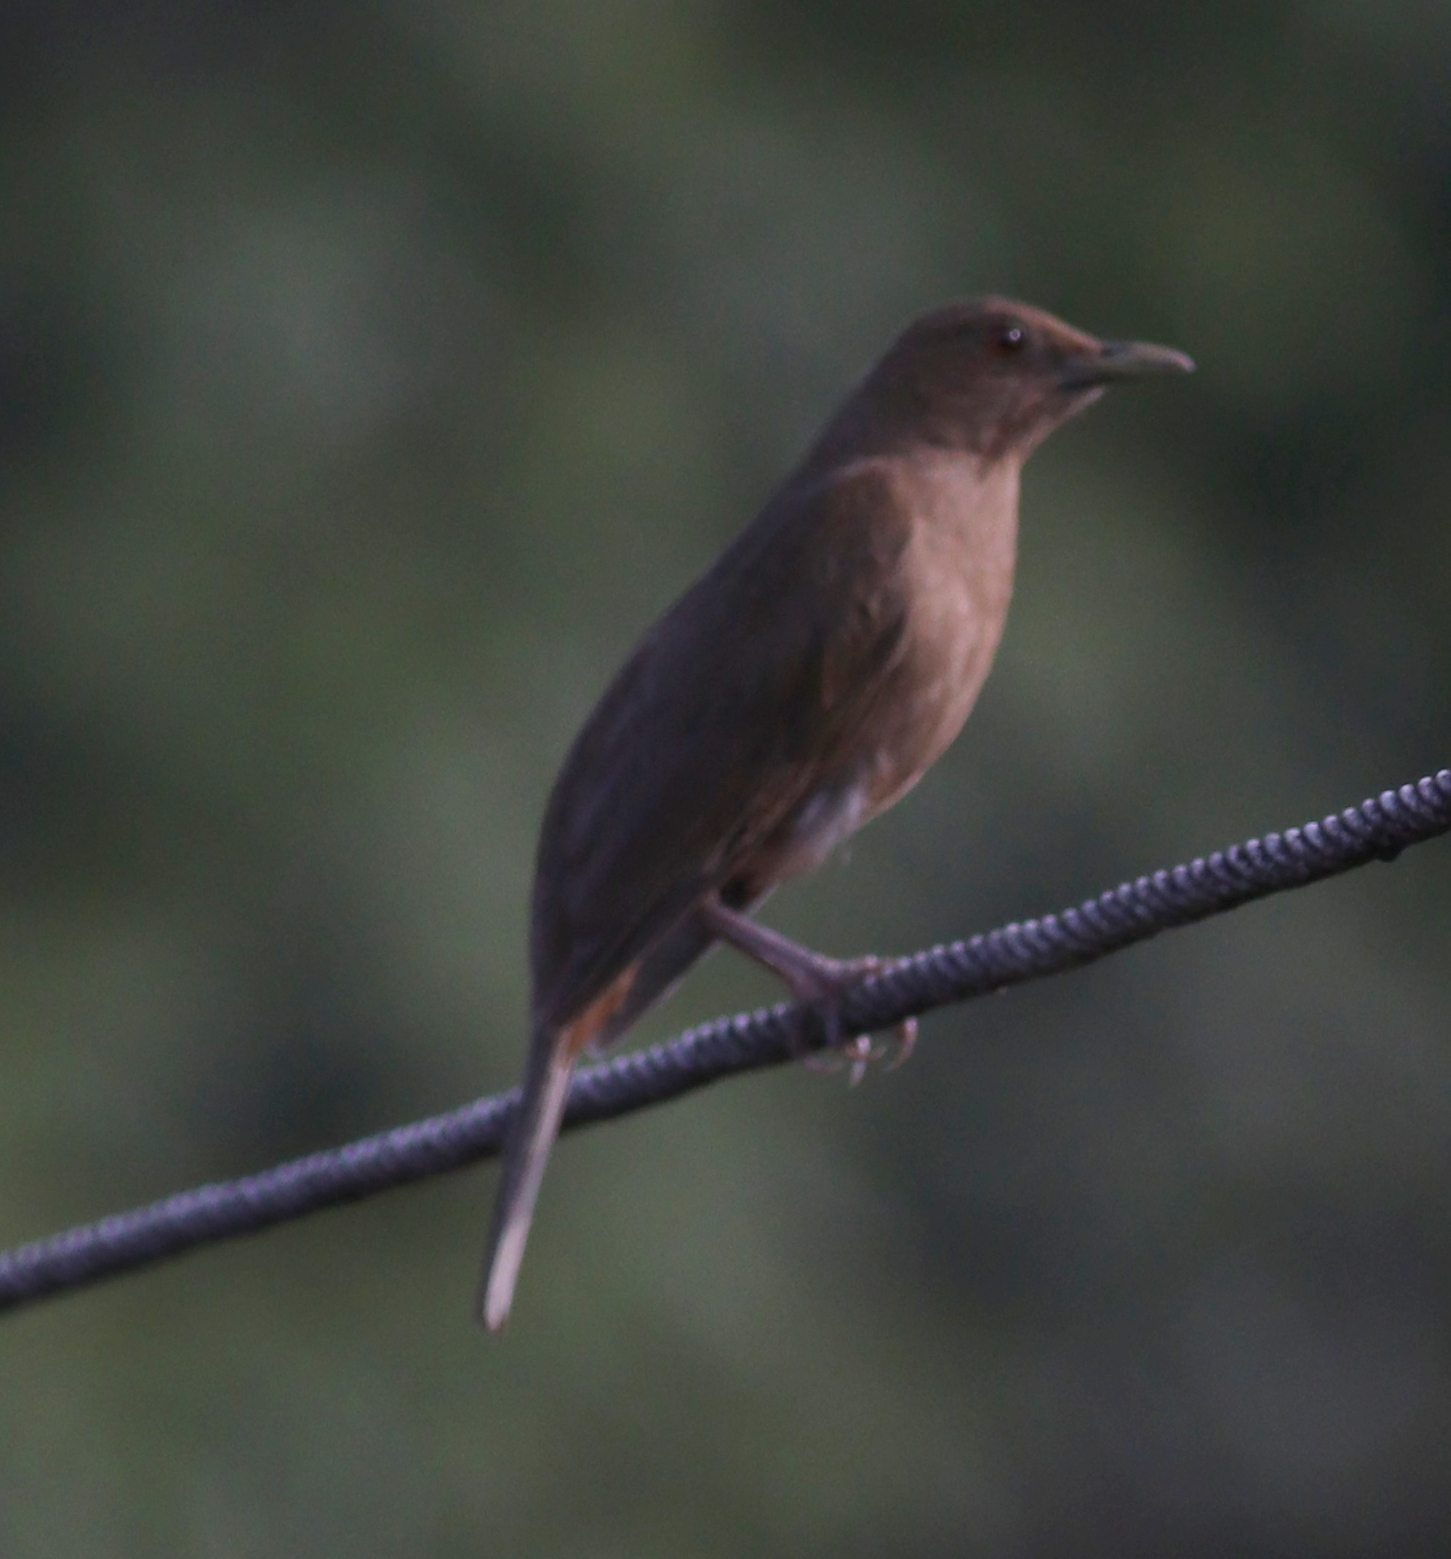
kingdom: Animalia
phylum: Chordata
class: Aves
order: Passeriformes
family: Turdidae
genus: Turdus
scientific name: Turdus grayi
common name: Clay-colored thrush
